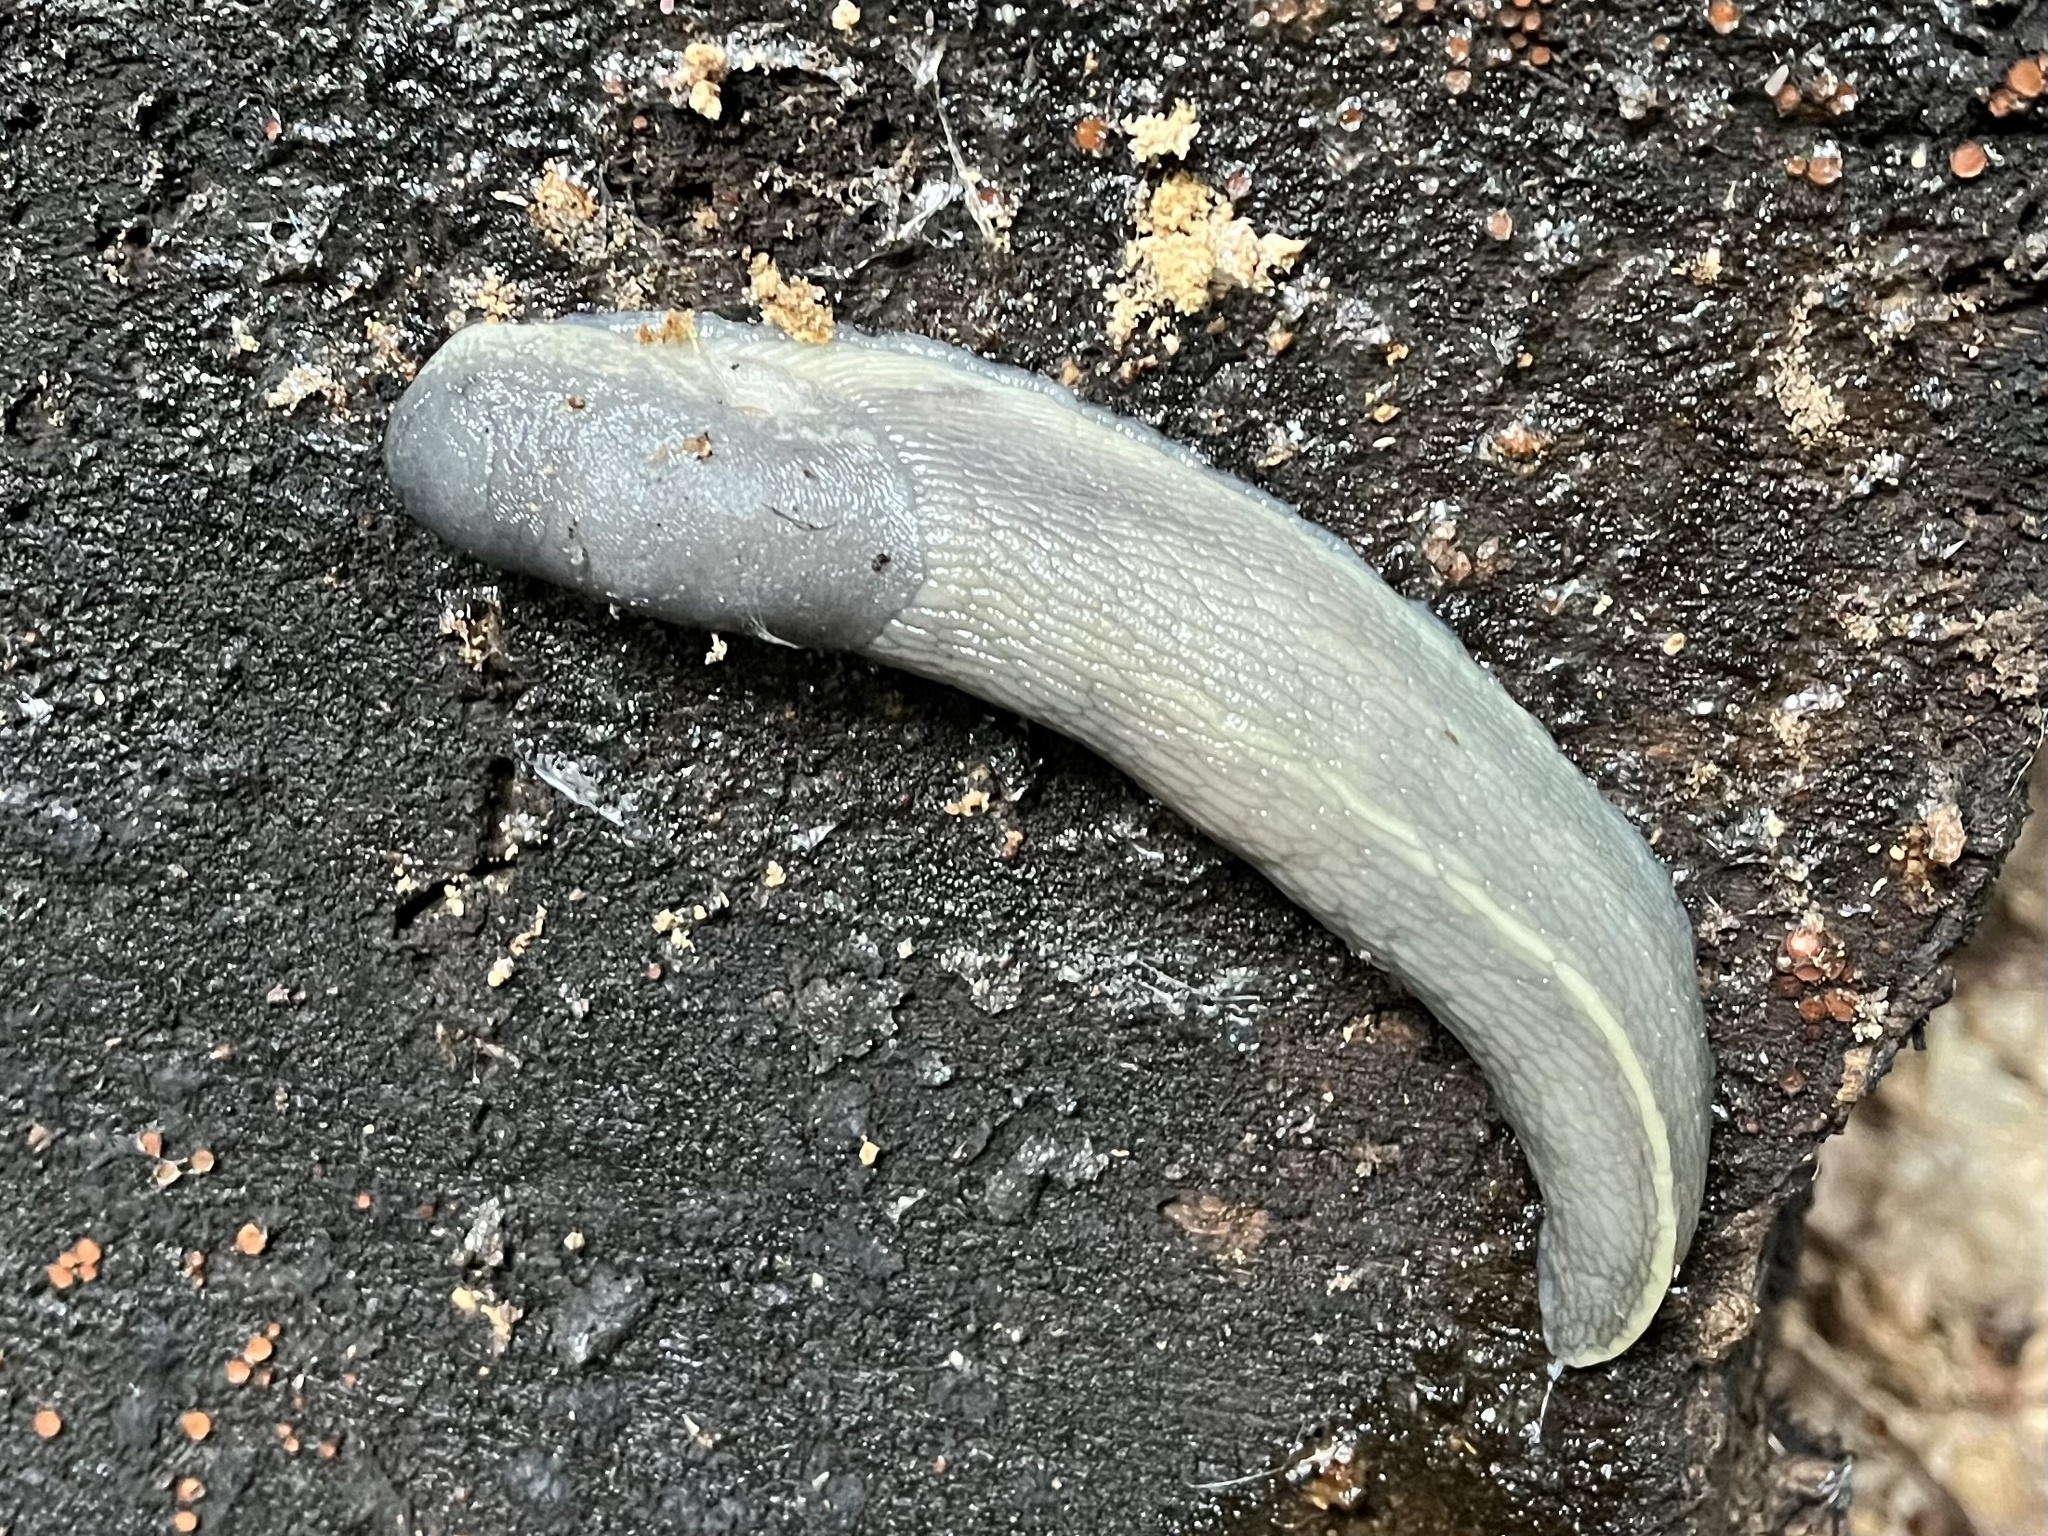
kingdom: Animalia
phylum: Mollusca
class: Gastropoda
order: Stylommatophora
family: Limacidae
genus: Limax
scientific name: Limax cinereoniger
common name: Ash-black slug
